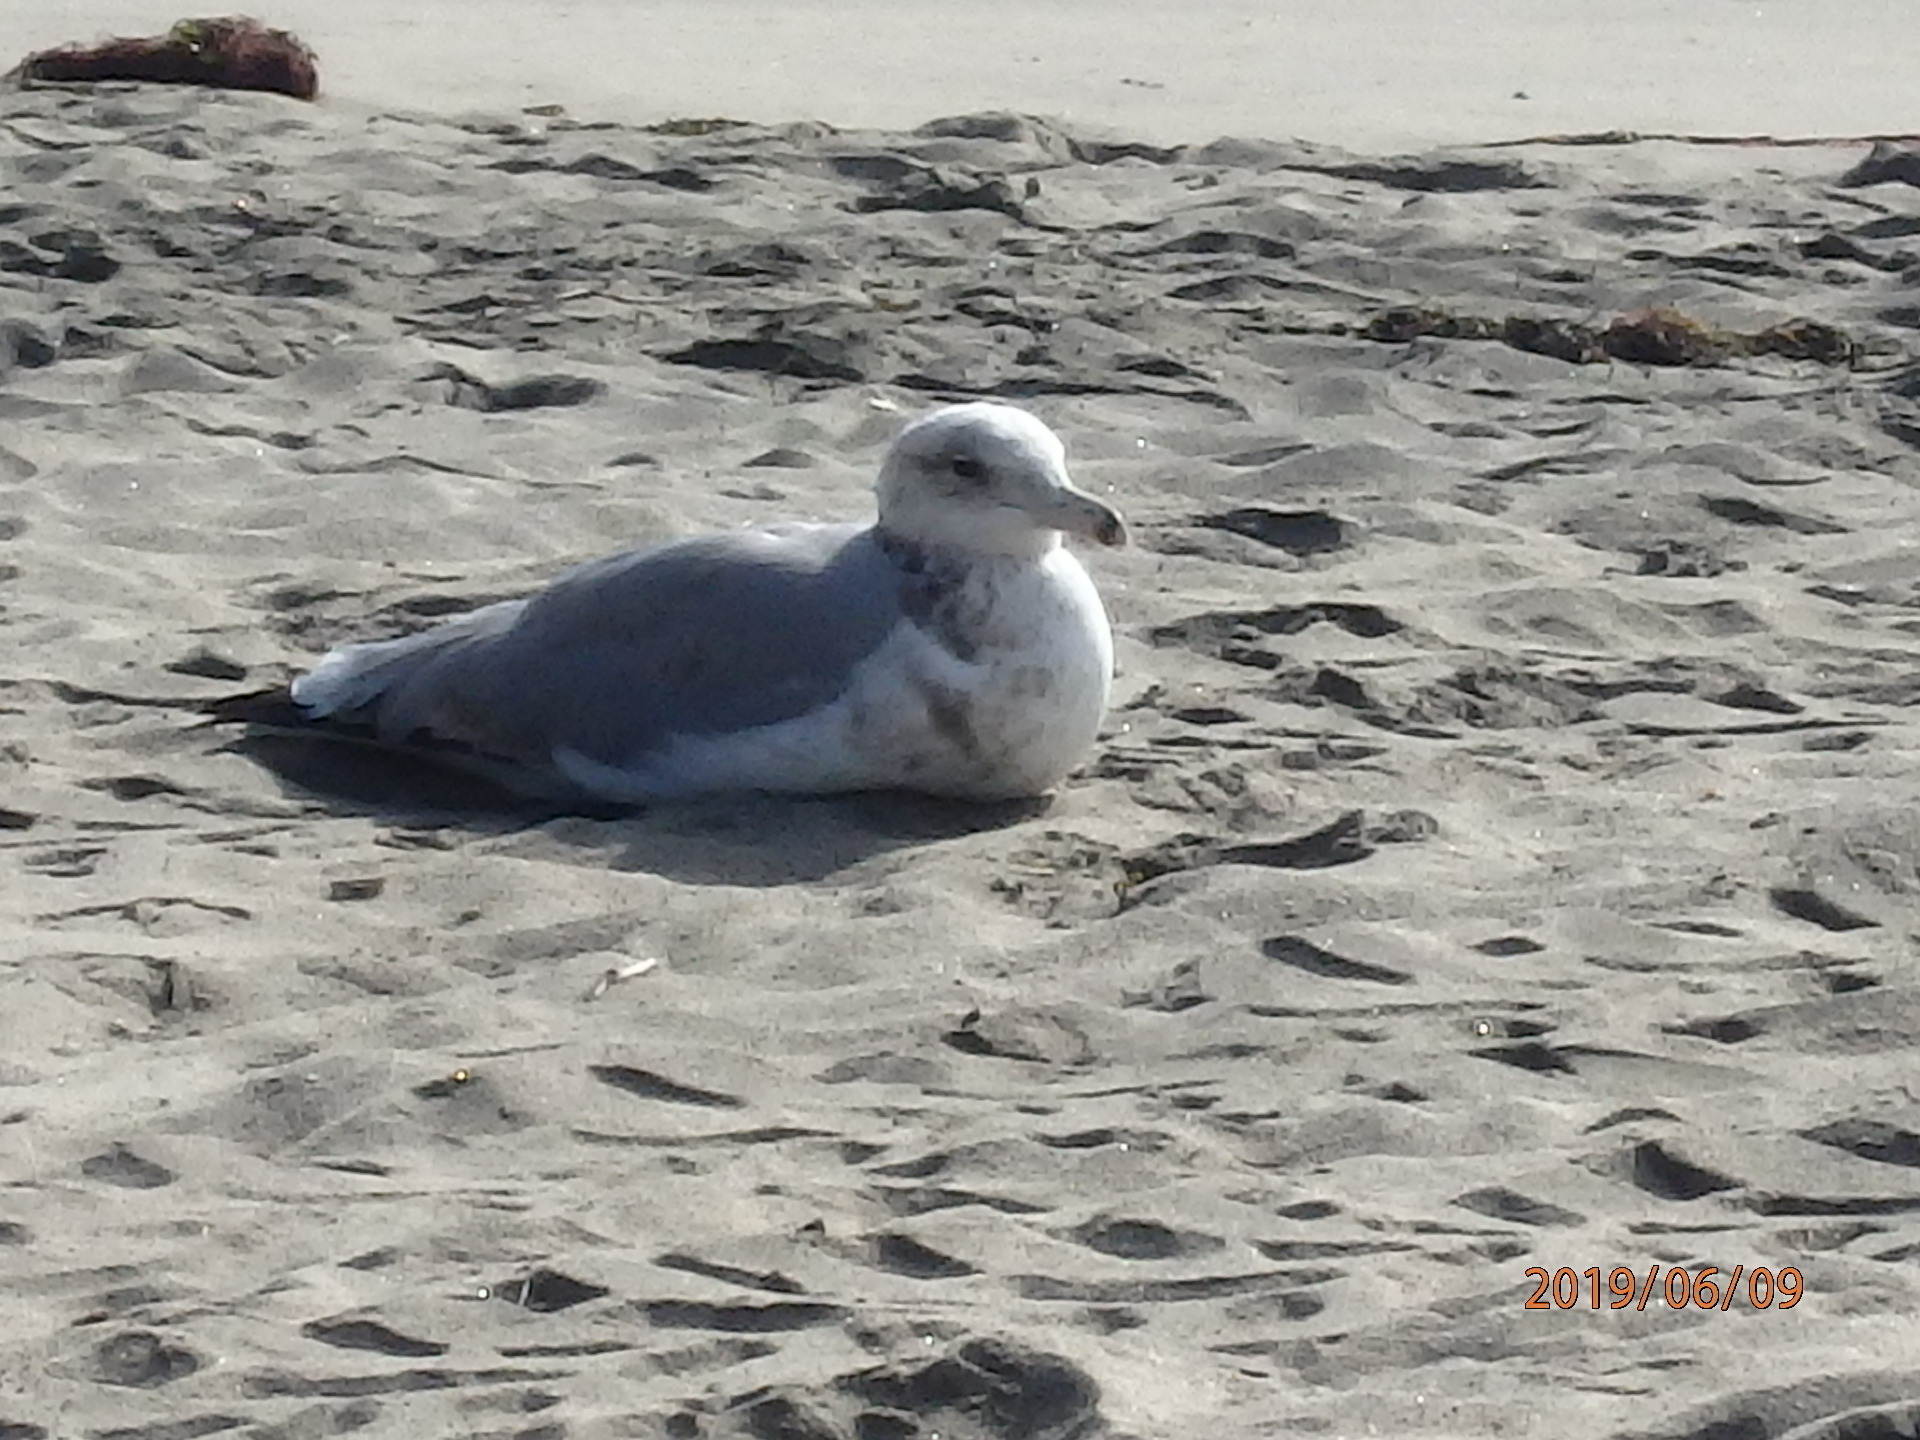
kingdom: Animalia
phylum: Chordata
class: Aves
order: Charadriiformes
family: Laridae
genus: Larus
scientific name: Larus californicus
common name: California gull
